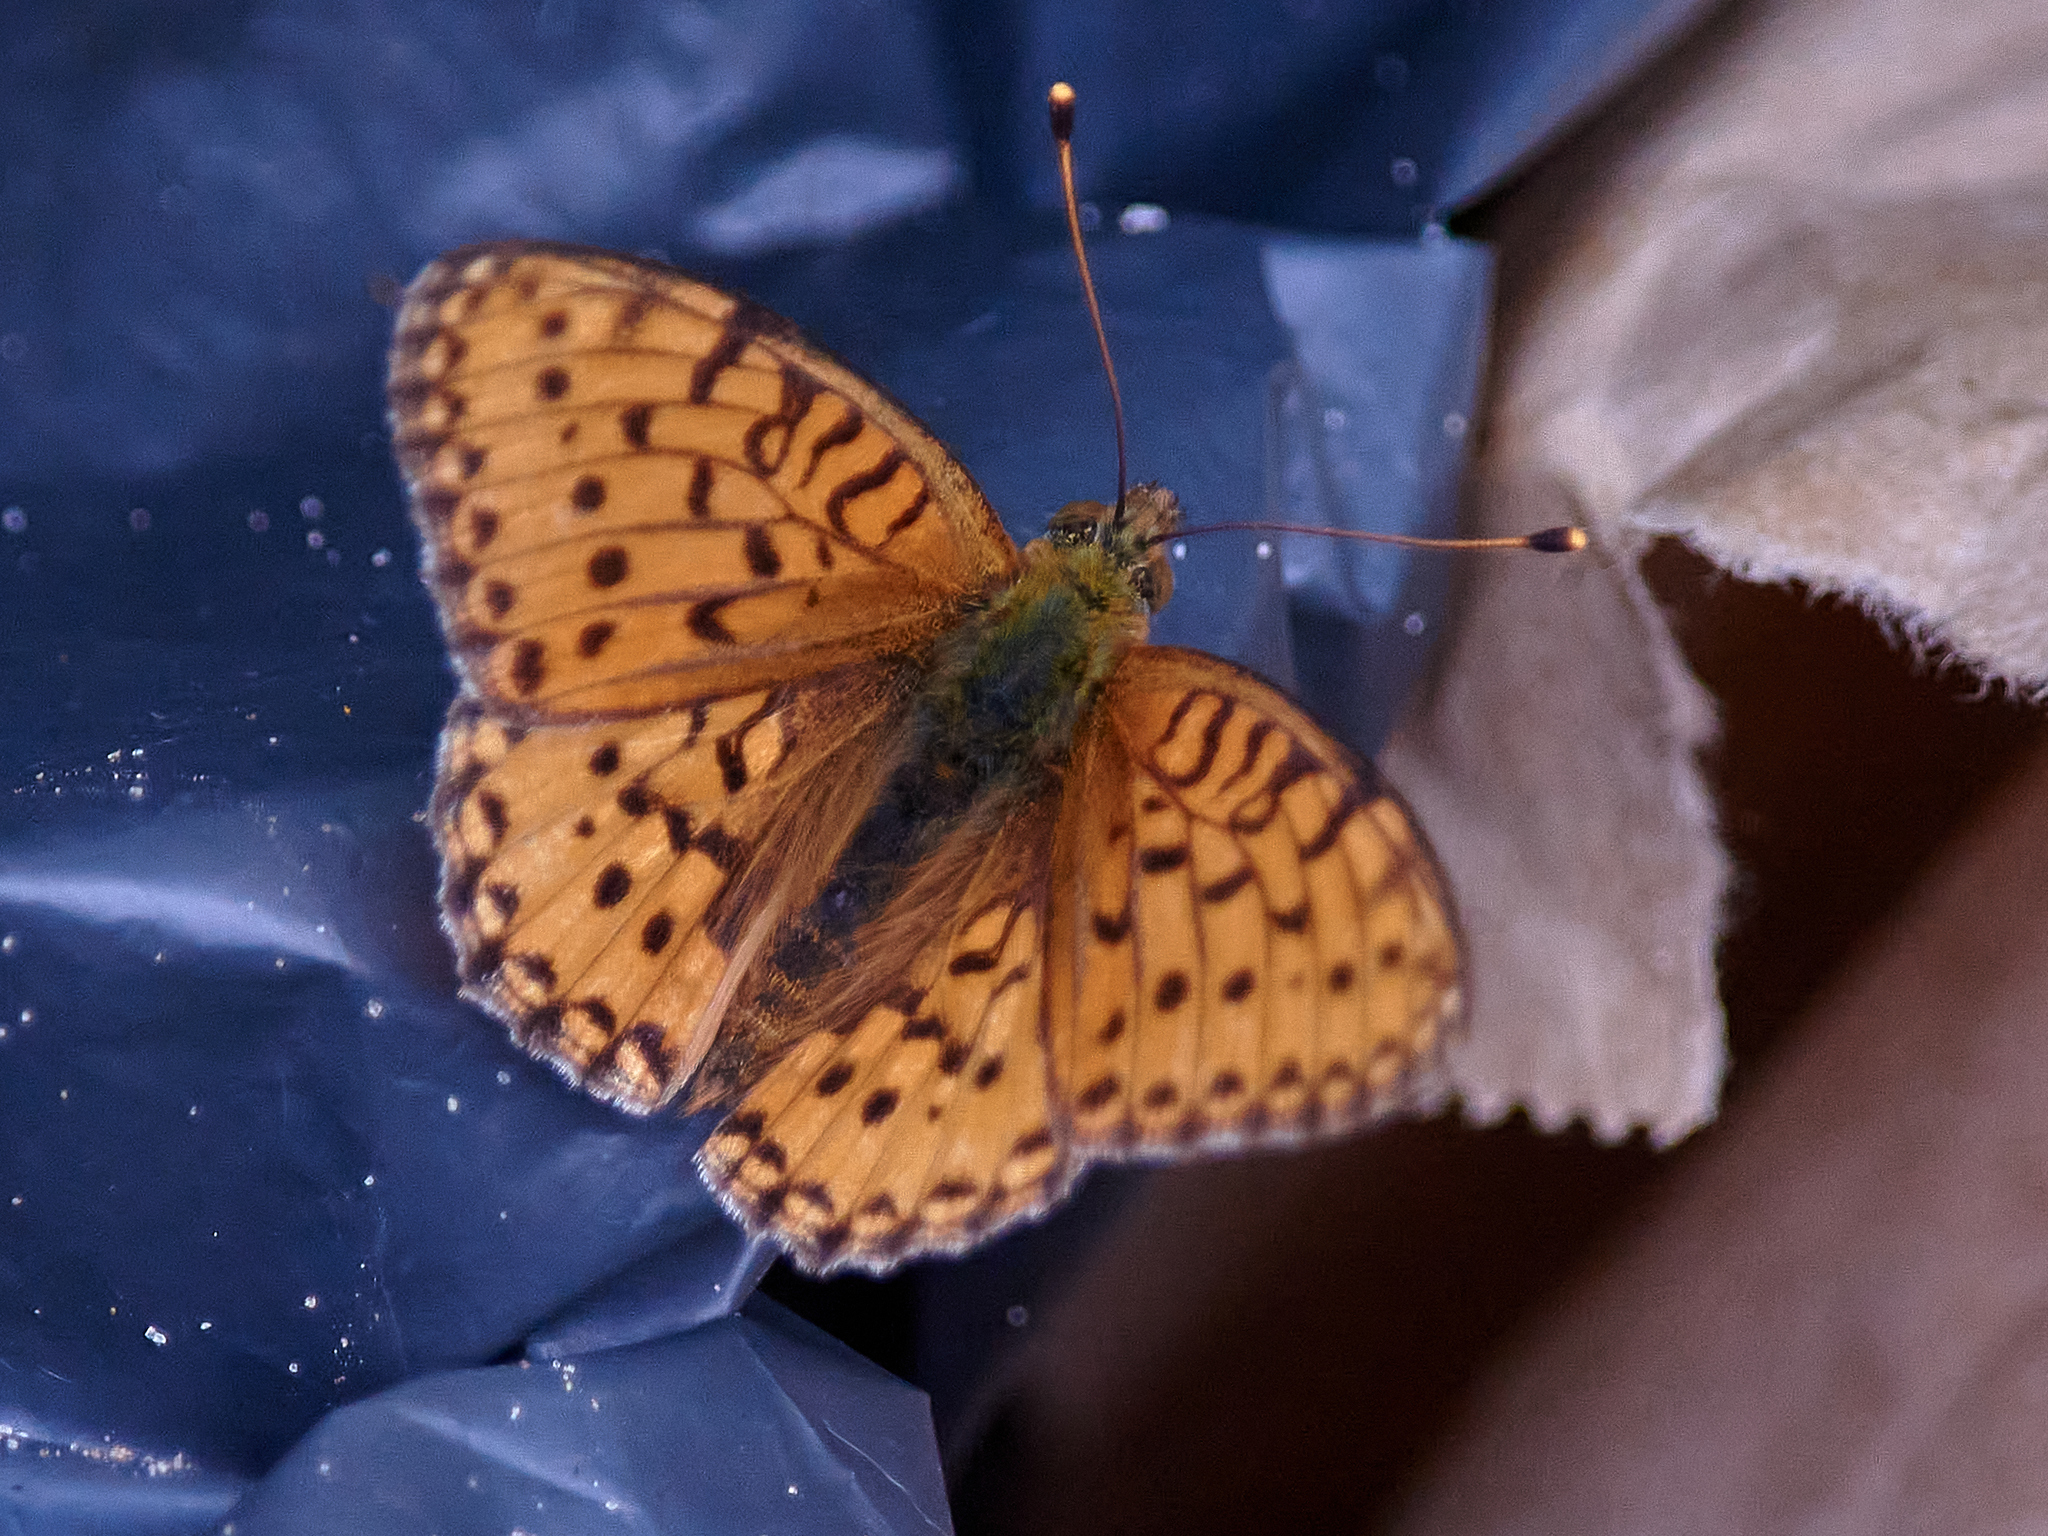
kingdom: Animalia
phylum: Arthropoda
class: Insecta
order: Lepidoptera
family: Nymphalidae
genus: Speyeria
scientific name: Speyeria aglaja
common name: Dark green fritillary
